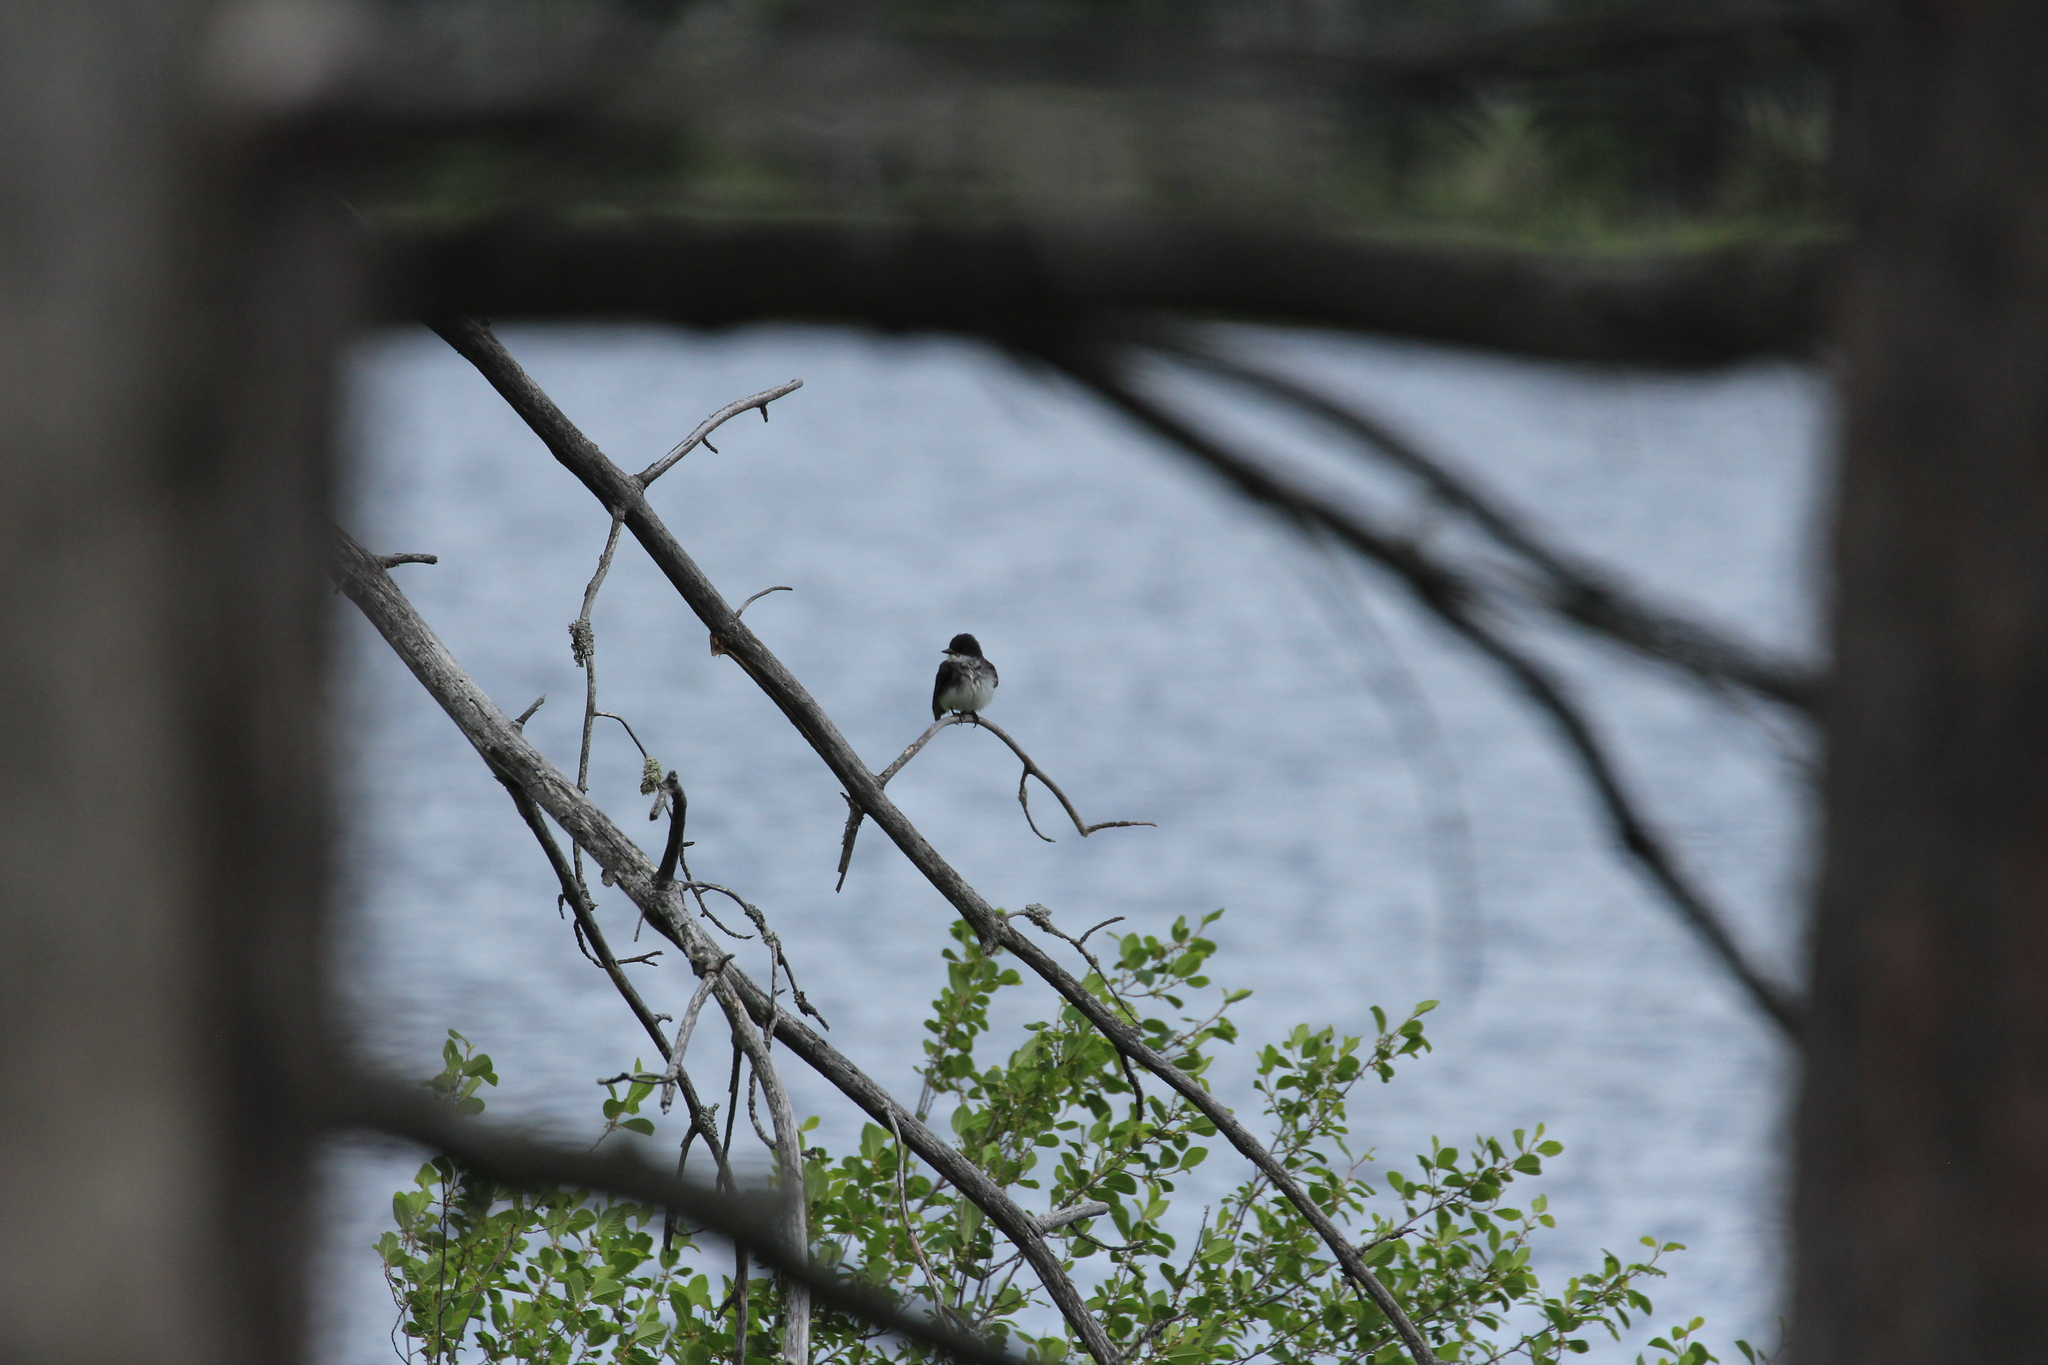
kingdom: Animalia
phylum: Chordata
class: Aves
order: Passeriformes
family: Tyrannidae
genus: Tyrannus
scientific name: Tyrannus tyrannus
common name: Eastern kingbird
